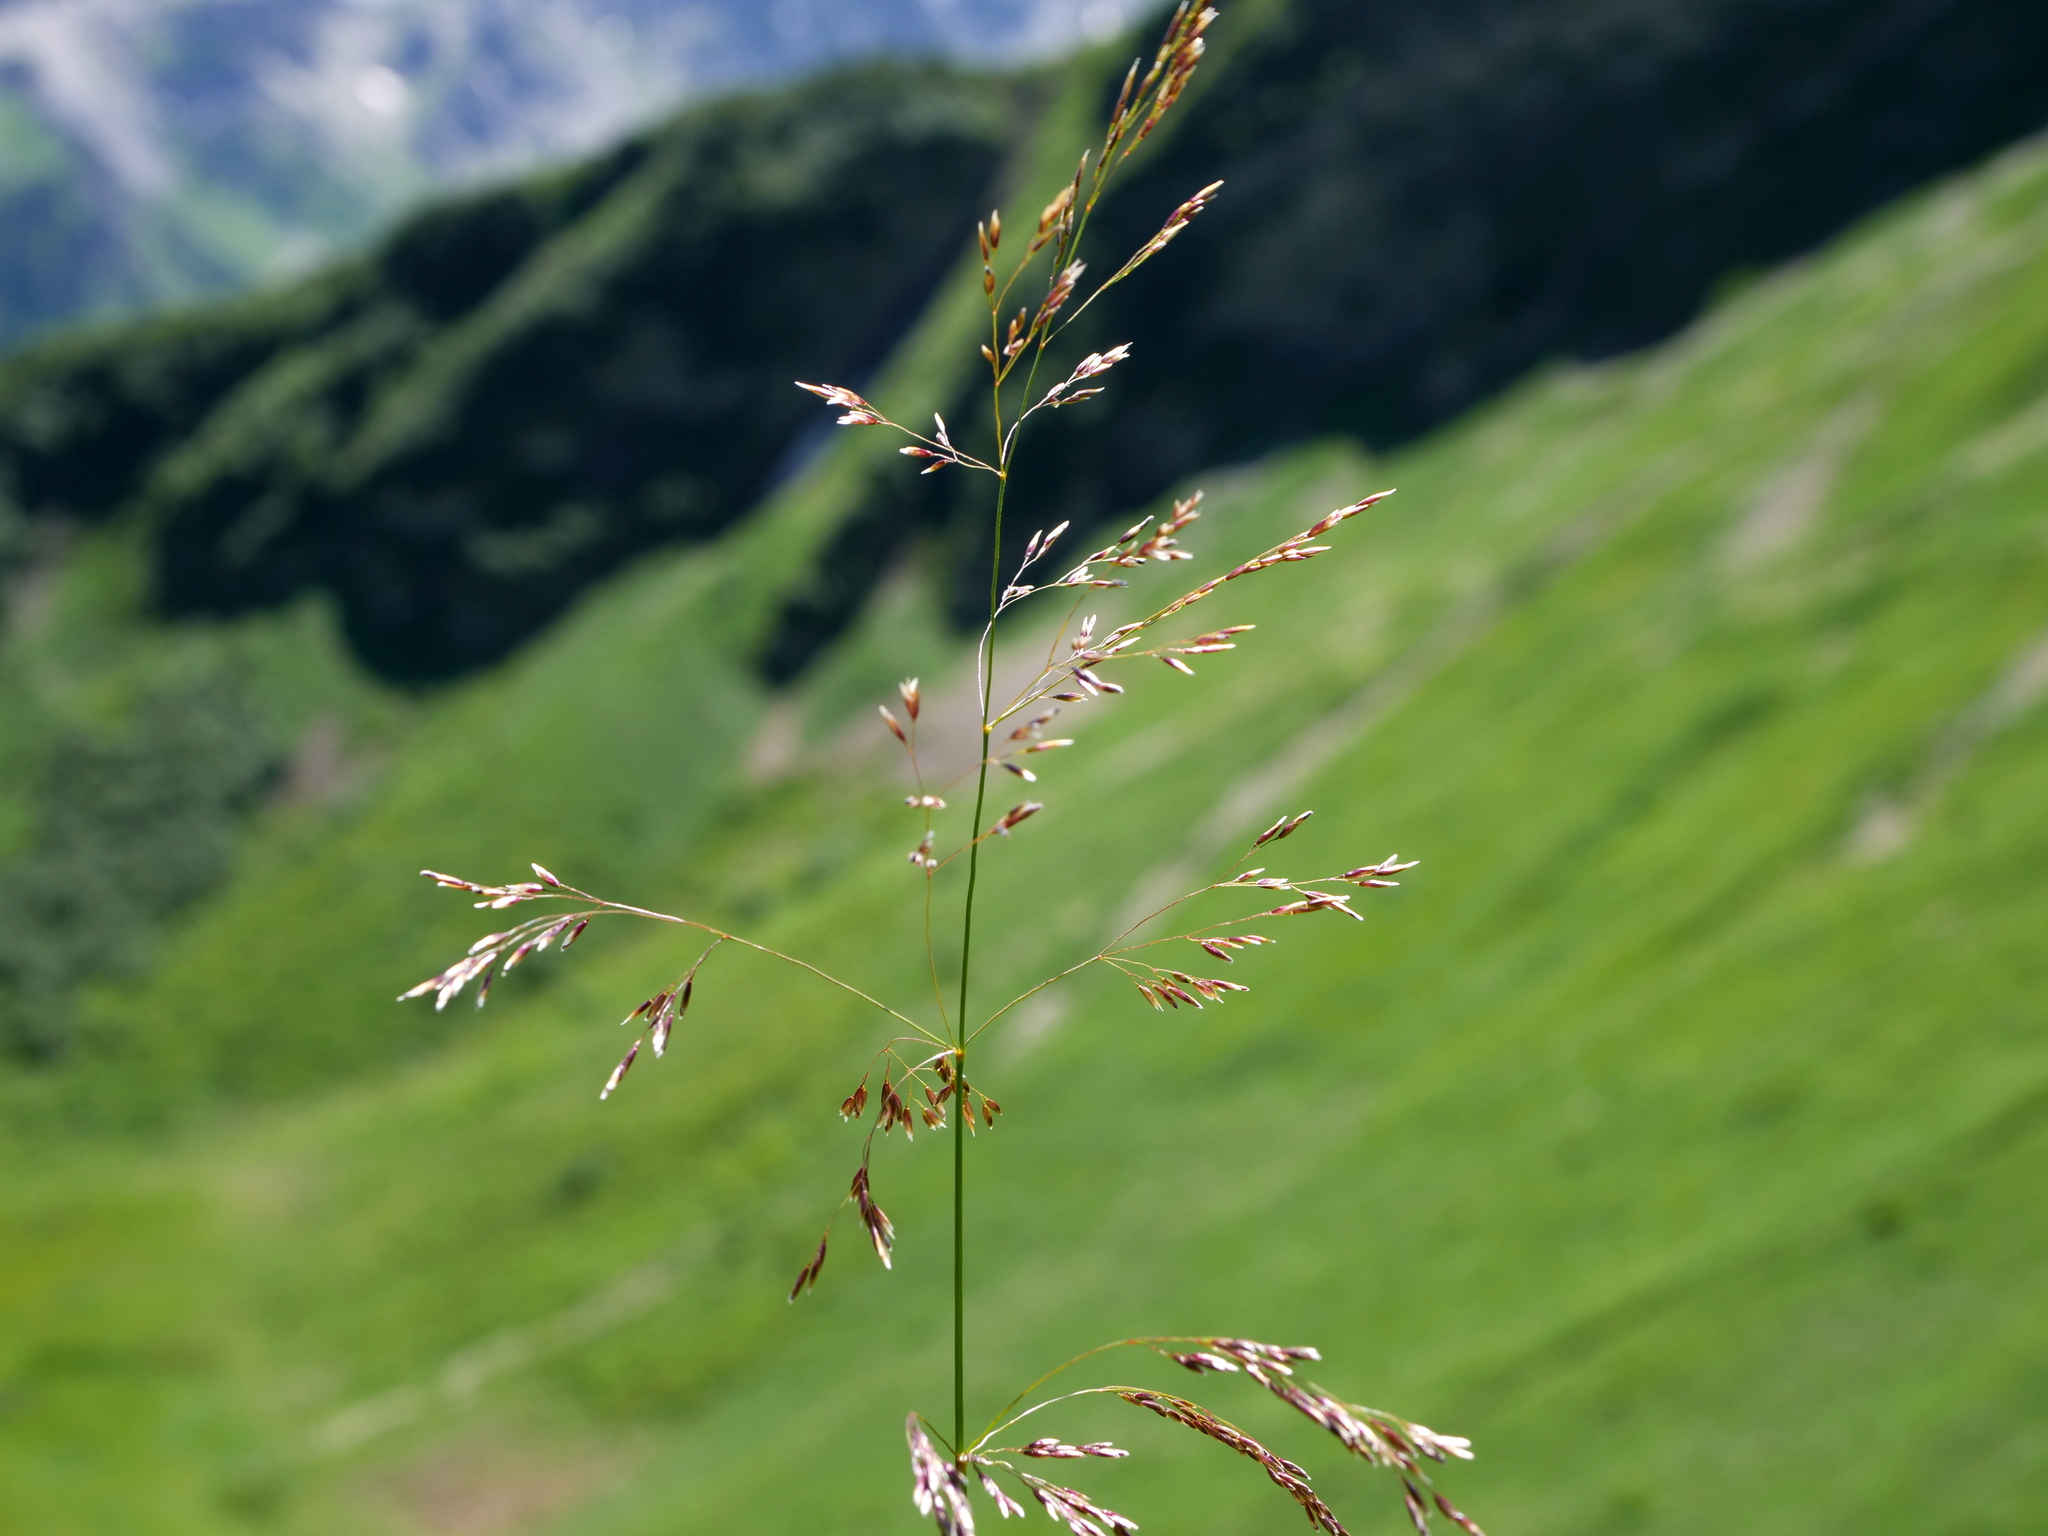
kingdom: Plantae
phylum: Tracheophyta
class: Liliopsida
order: Poales
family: Poaceae
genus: Deschampsia
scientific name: Deschampsia cespitosa
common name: Tufted hair-grass
